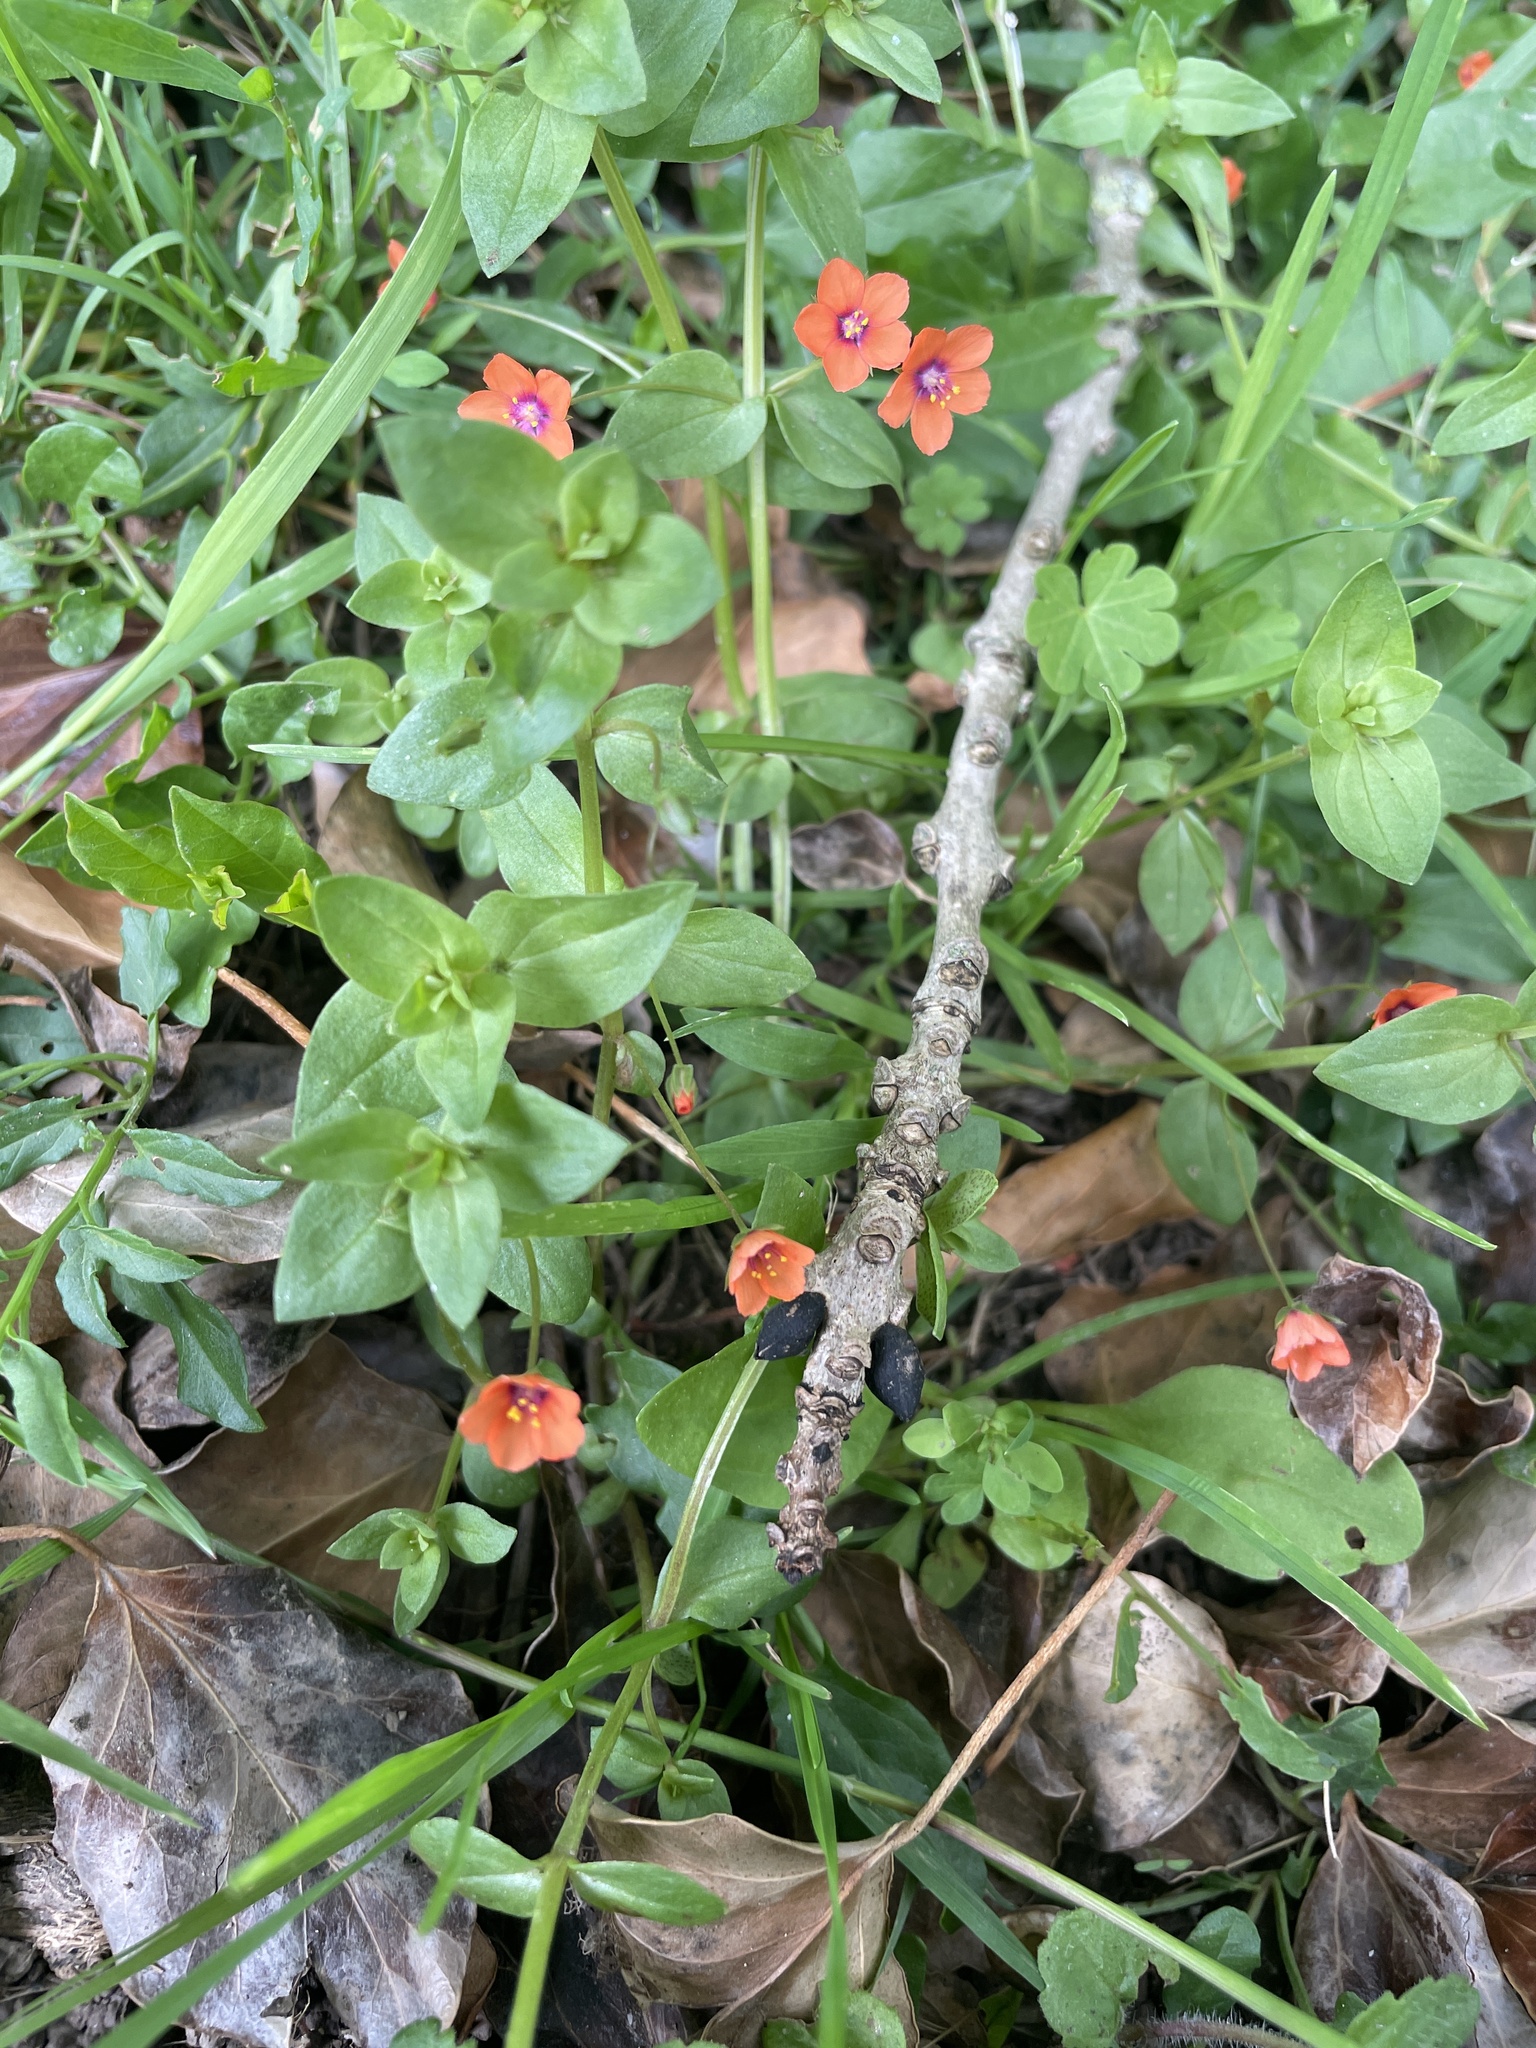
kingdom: Plantae
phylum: Tracheophyta
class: Magnoliopsida
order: Ericales
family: Primulaceae
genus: Lysimachia
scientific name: Lysimachia arvensis
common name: Scarlet pimpernel
